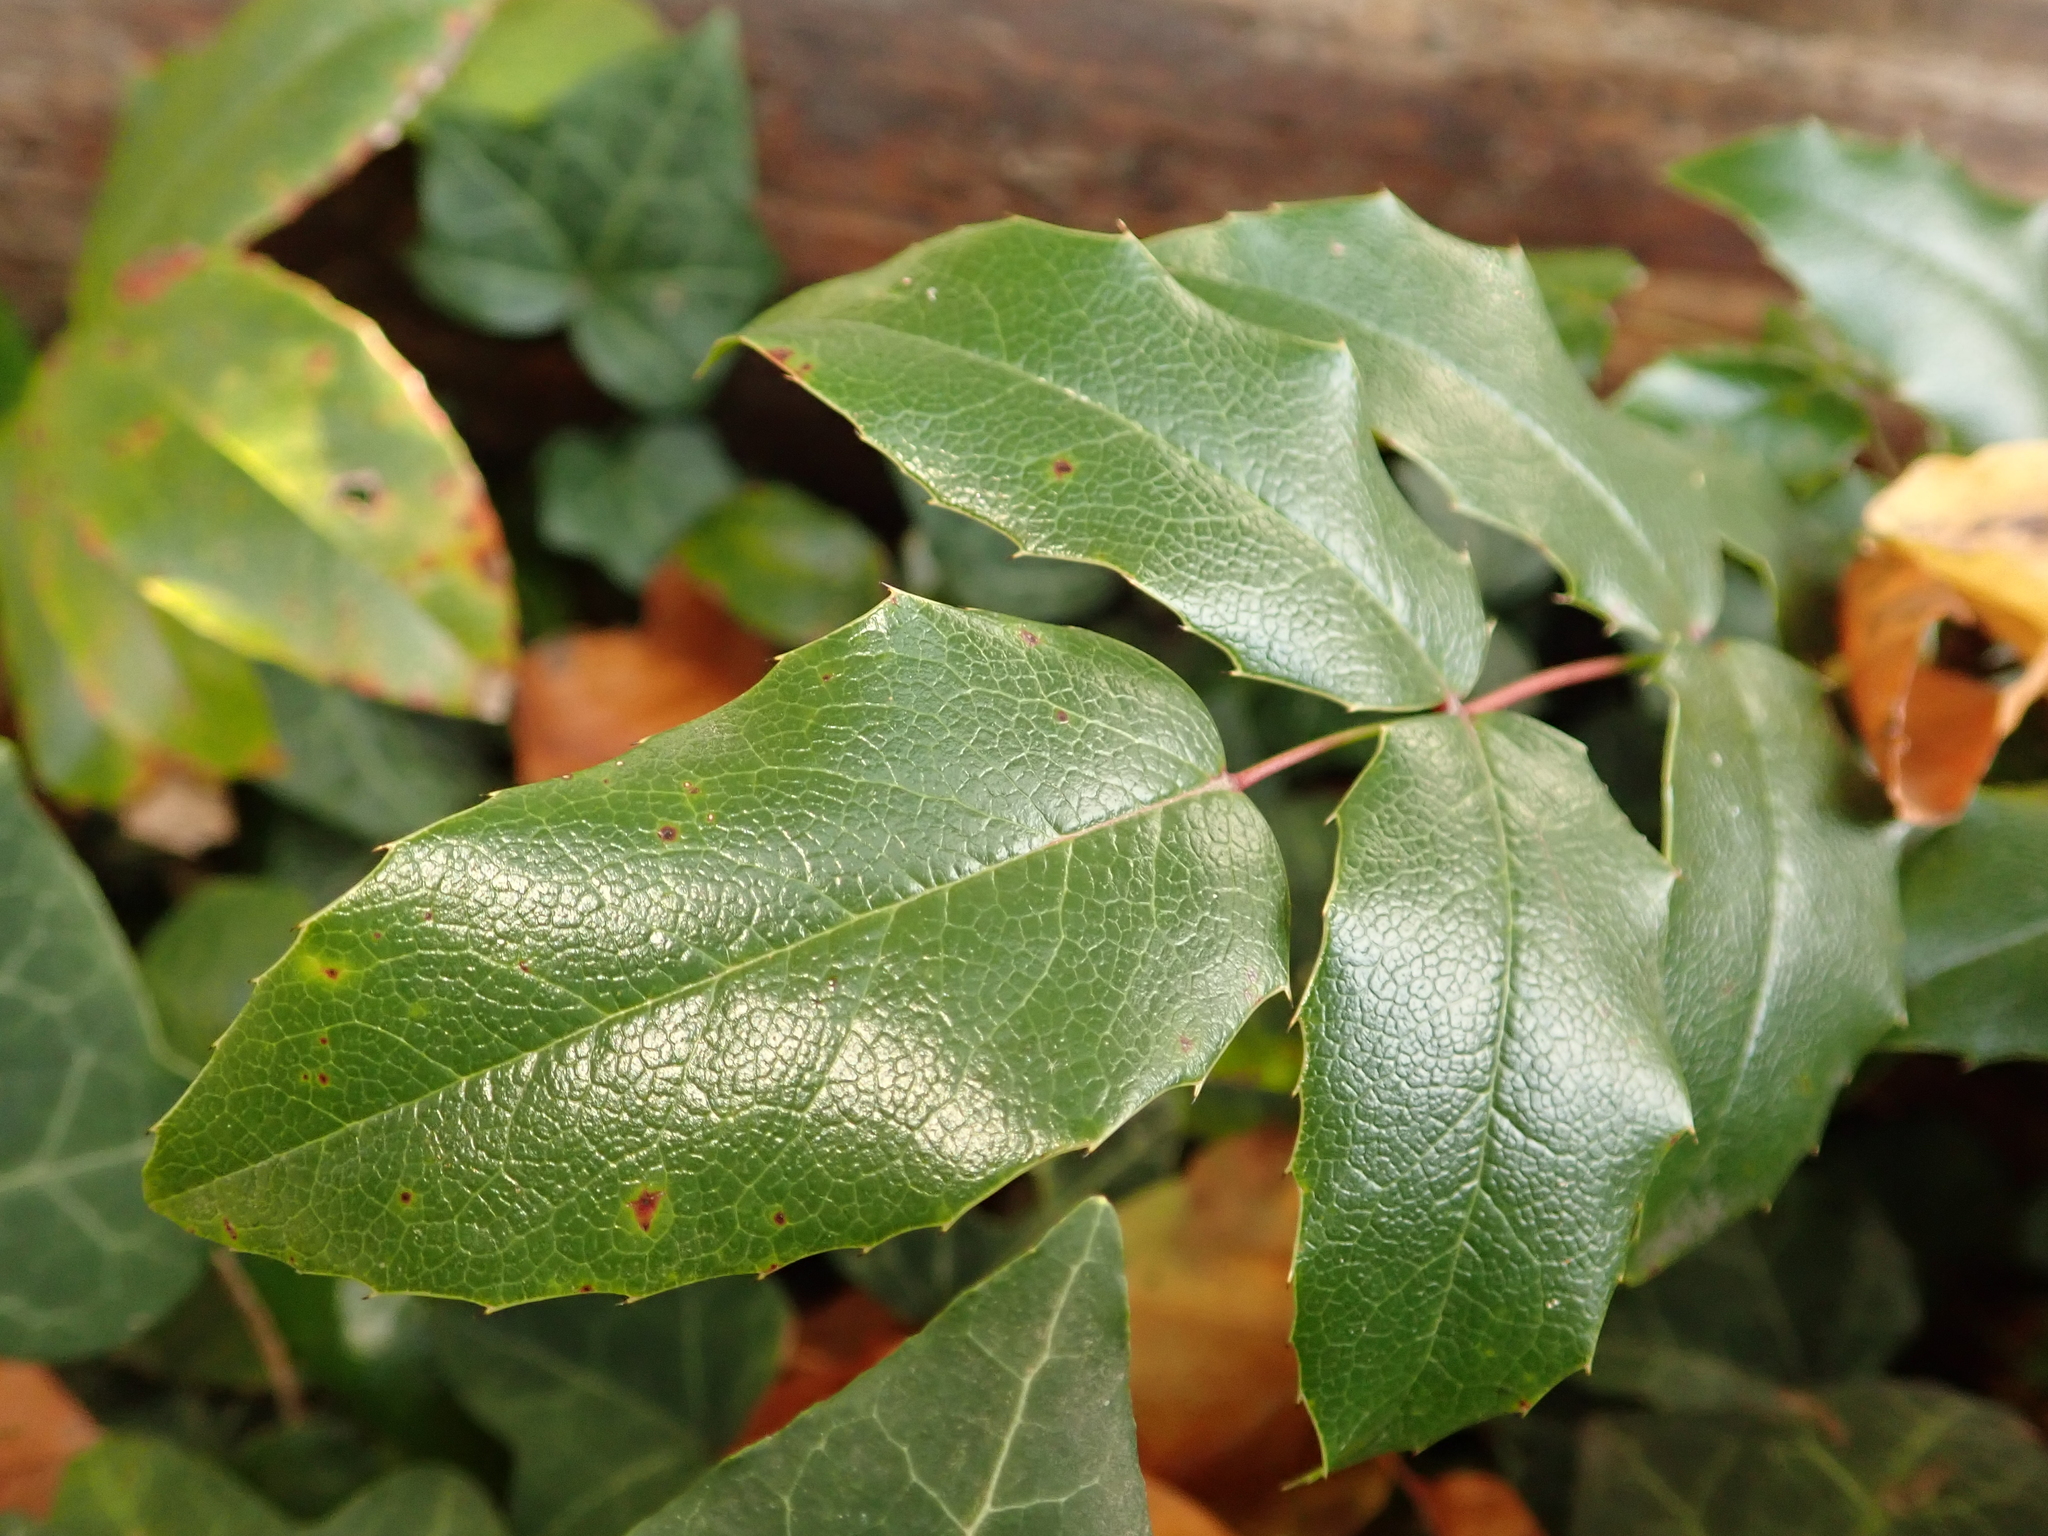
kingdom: Plantae
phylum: Tracheophyta
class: Magnoliopsida
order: Ranunculales
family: Berberidaceae
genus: Mahonia
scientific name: Mahonia aquifolium
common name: Oregon-grape
